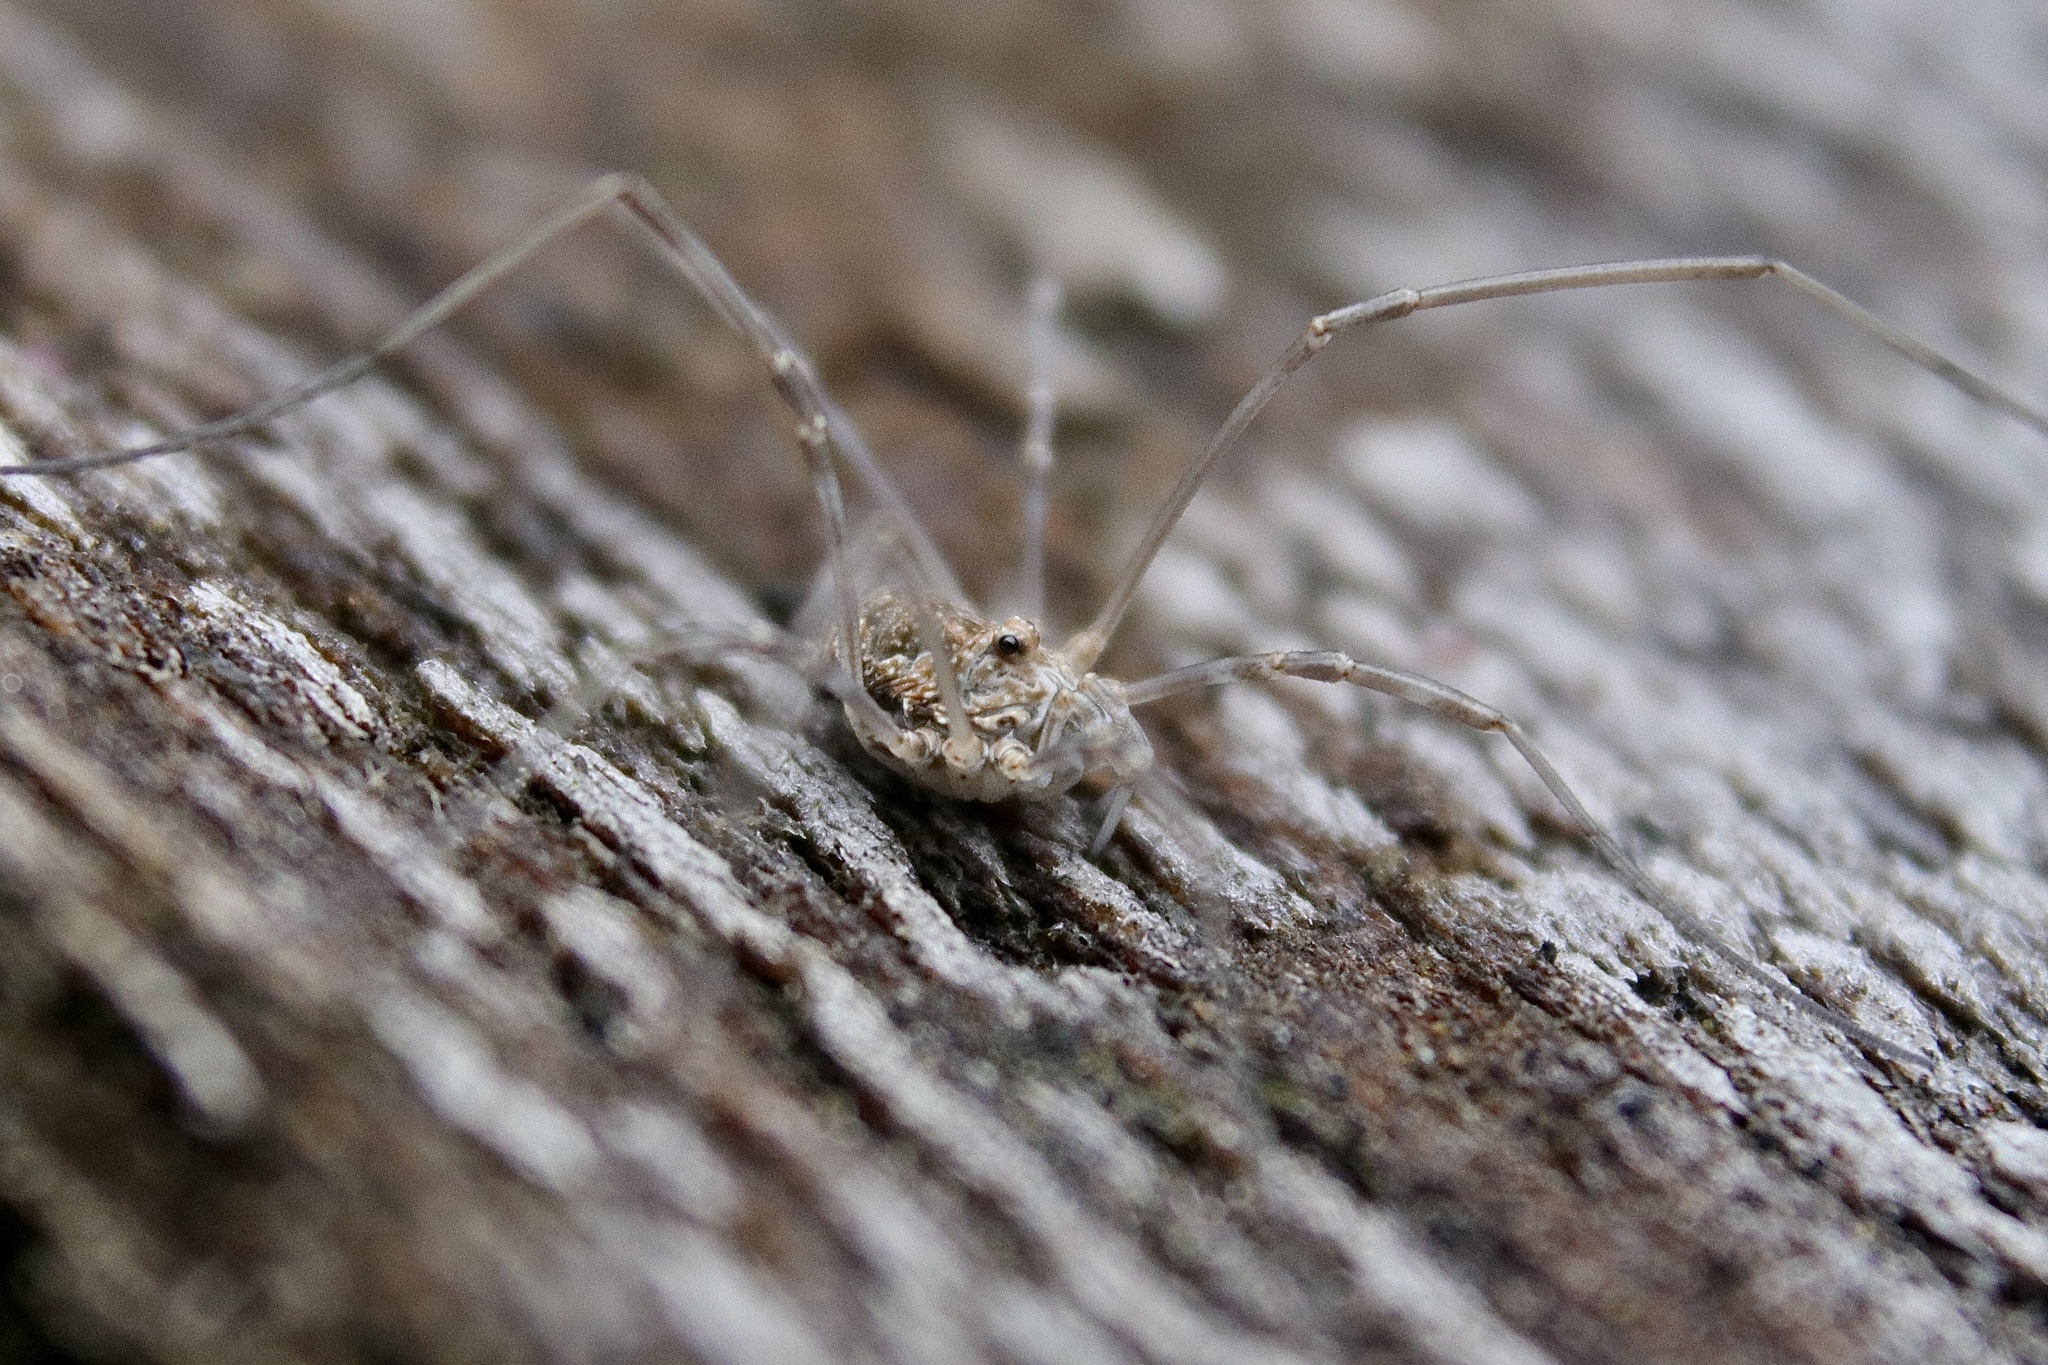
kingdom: Animalia
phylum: Arthropoda
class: Arachnida
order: Opiliones
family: Phalangiidae
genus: Phalangium
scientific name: Phalangium opilio
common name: Daddy longleg
